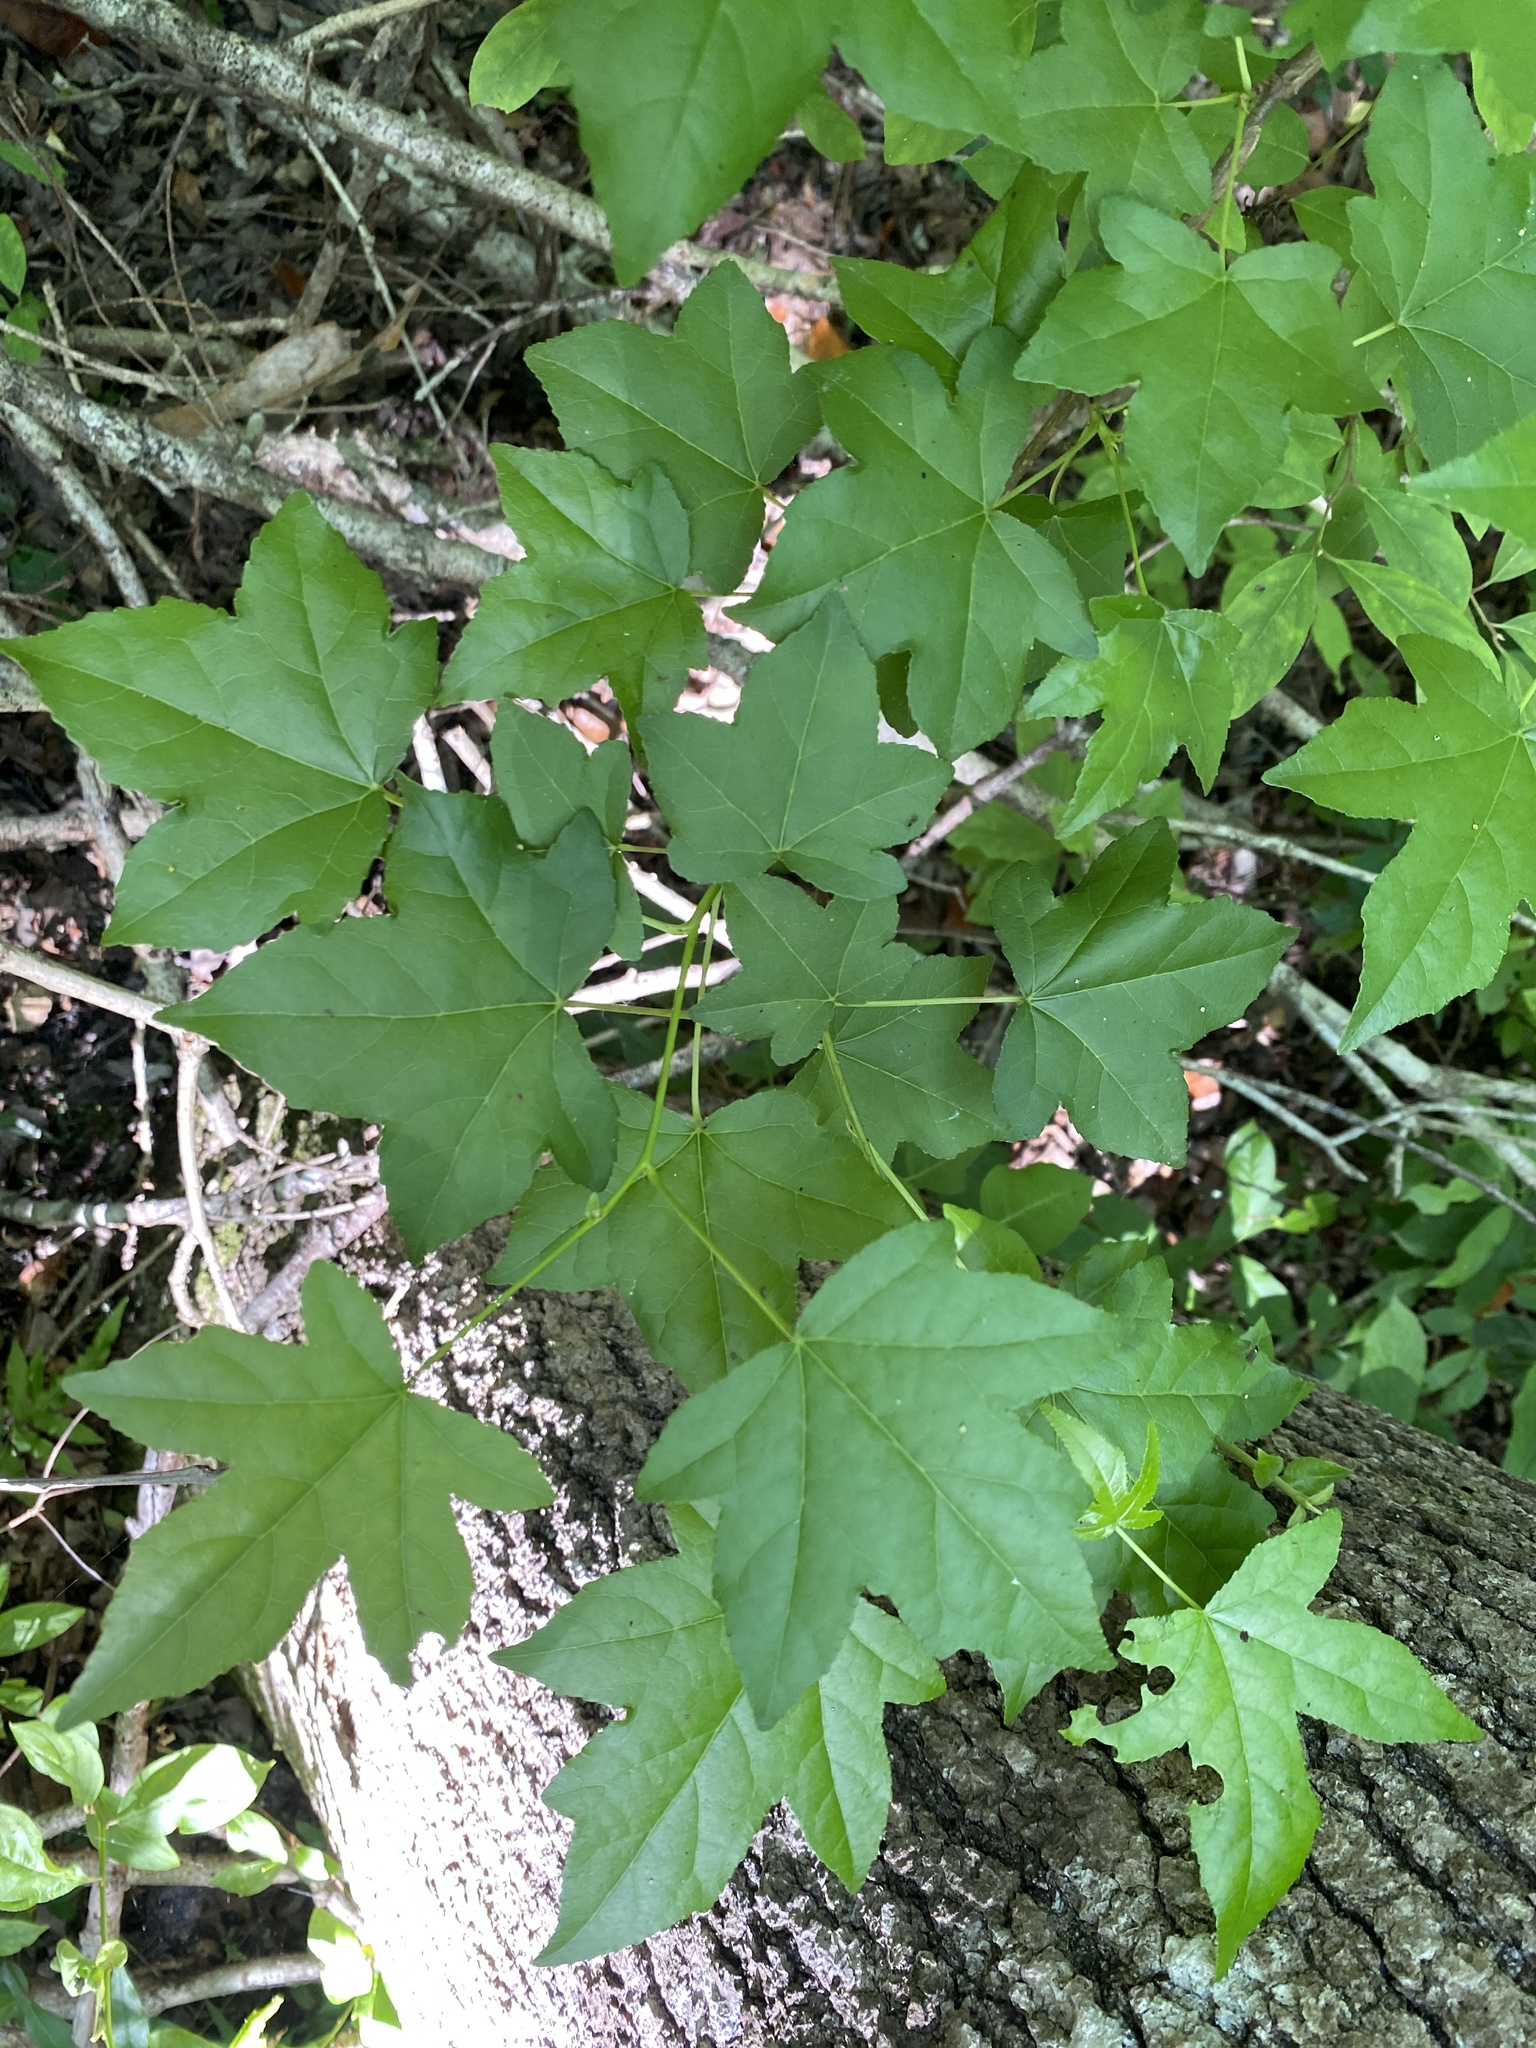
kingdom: Plantae
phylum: Tracheophyta
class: Magnoliopsida
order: Saxifragales
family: Altingiaceae
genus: Liquidambar
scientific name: Liquidambar styraciflua
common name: Sweet gum
